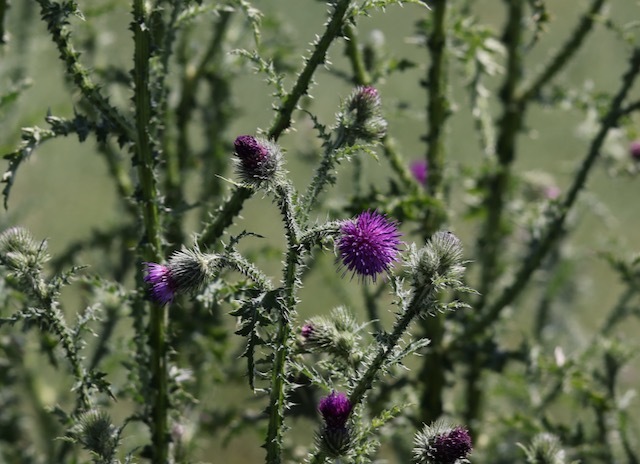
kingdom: Plantae
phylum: Tracheophyta
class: Magnoliopsida
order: Asterales
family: Asteraceae
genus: Carduus
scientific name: Carduus crispus
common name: Welted thistle
